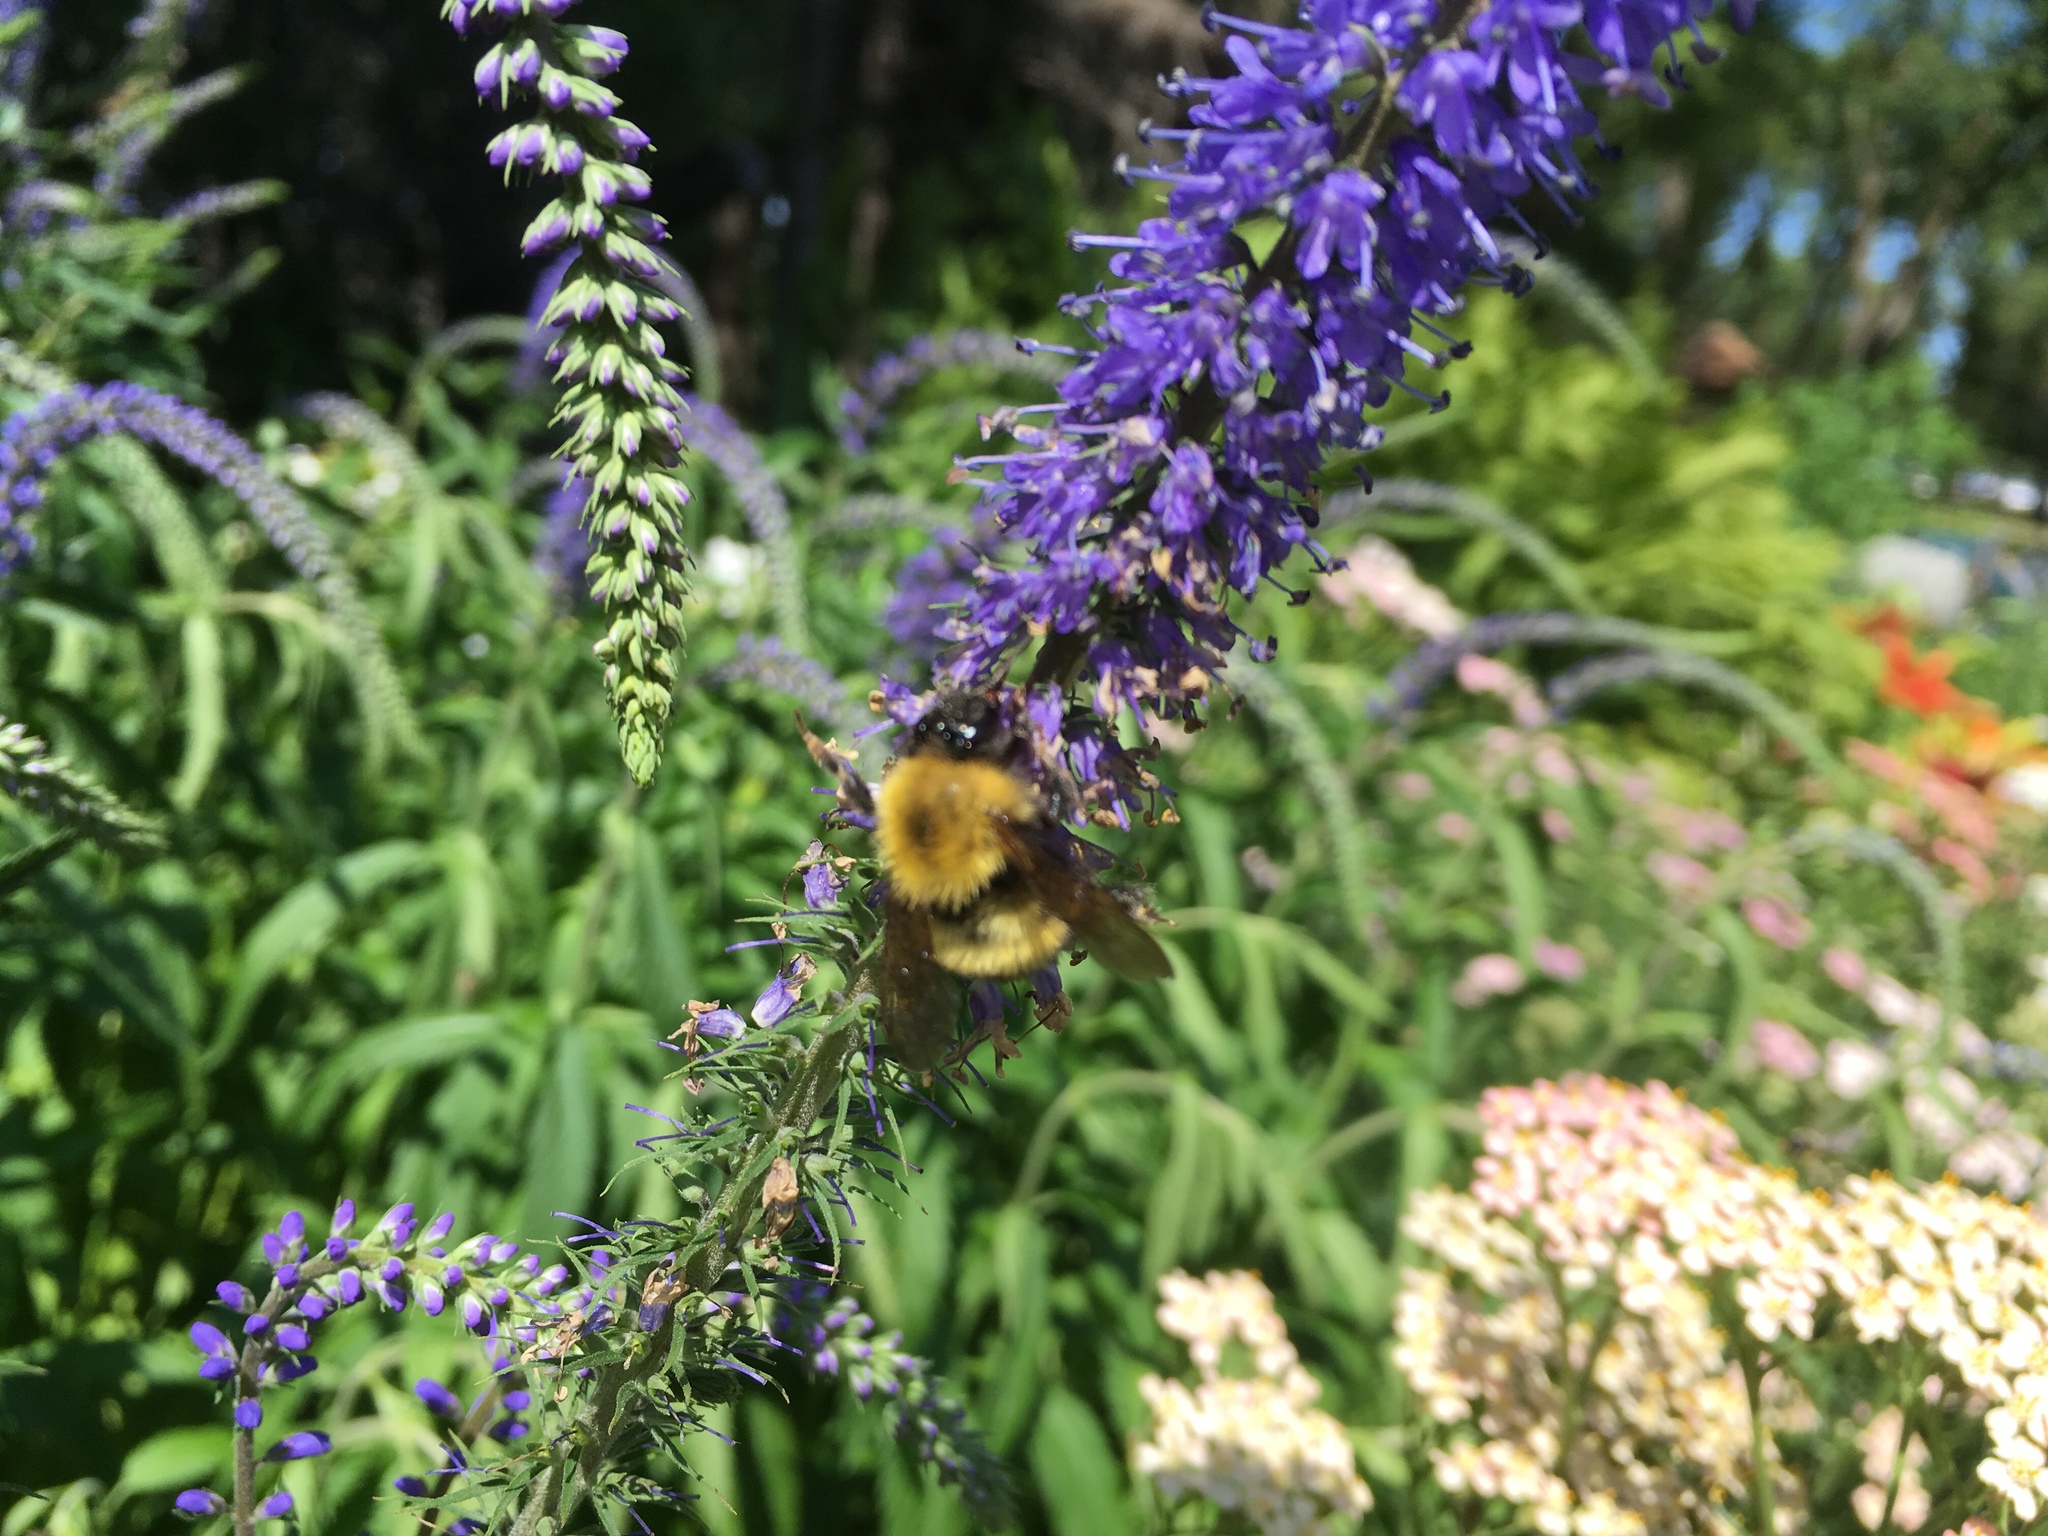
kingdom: Animalia
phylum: Arthropoda
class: Insecta
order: Hymenoptera
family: Apidae
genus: Bombus
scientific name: Bombus perplexus
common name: Confusing bumble bee
